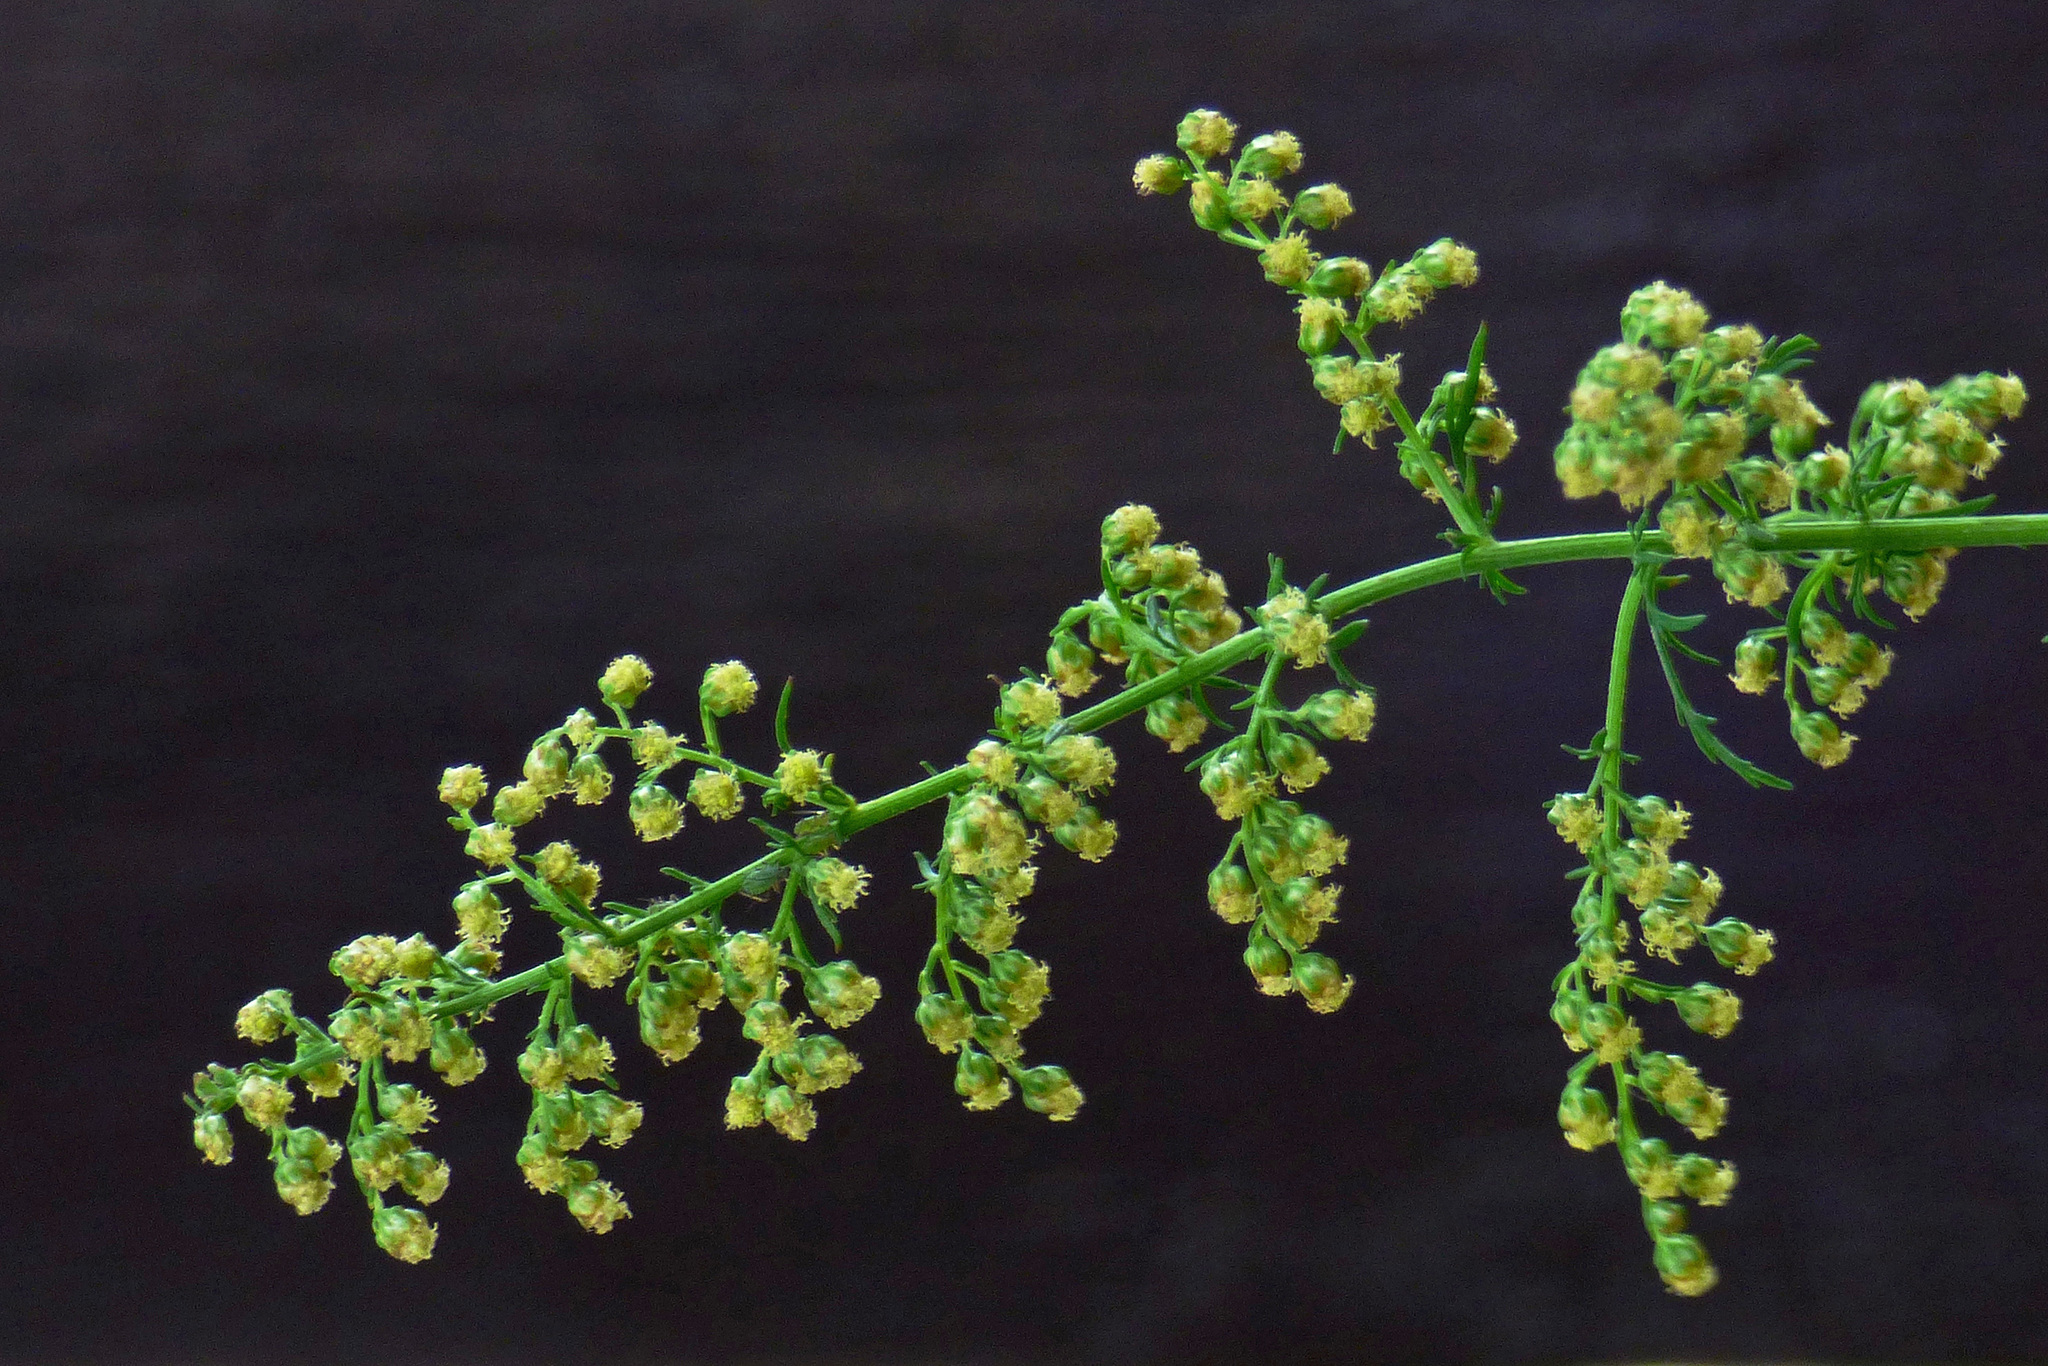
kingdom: Plantae
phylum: Tracheophyta
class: Magnoliopsida
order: Asterales
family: Asteraceae
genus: Artemisia
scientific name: Artemisia annua
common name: Sweet sagewort
